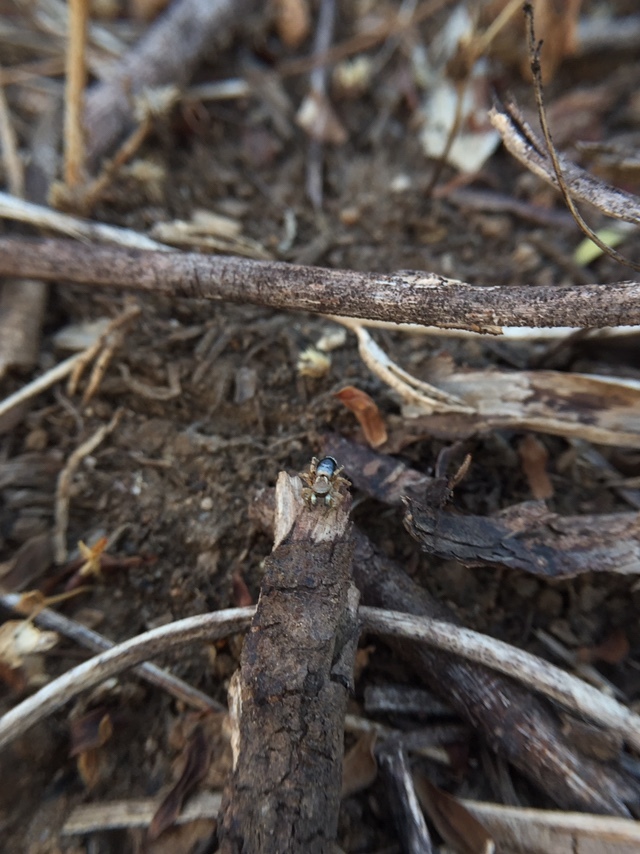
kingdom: Animalia
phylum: Arthropoda
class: Arachnida
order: Araneae
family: Salticidae
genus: Stenaelurillus
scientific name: Stenaelurillus sarojinae
